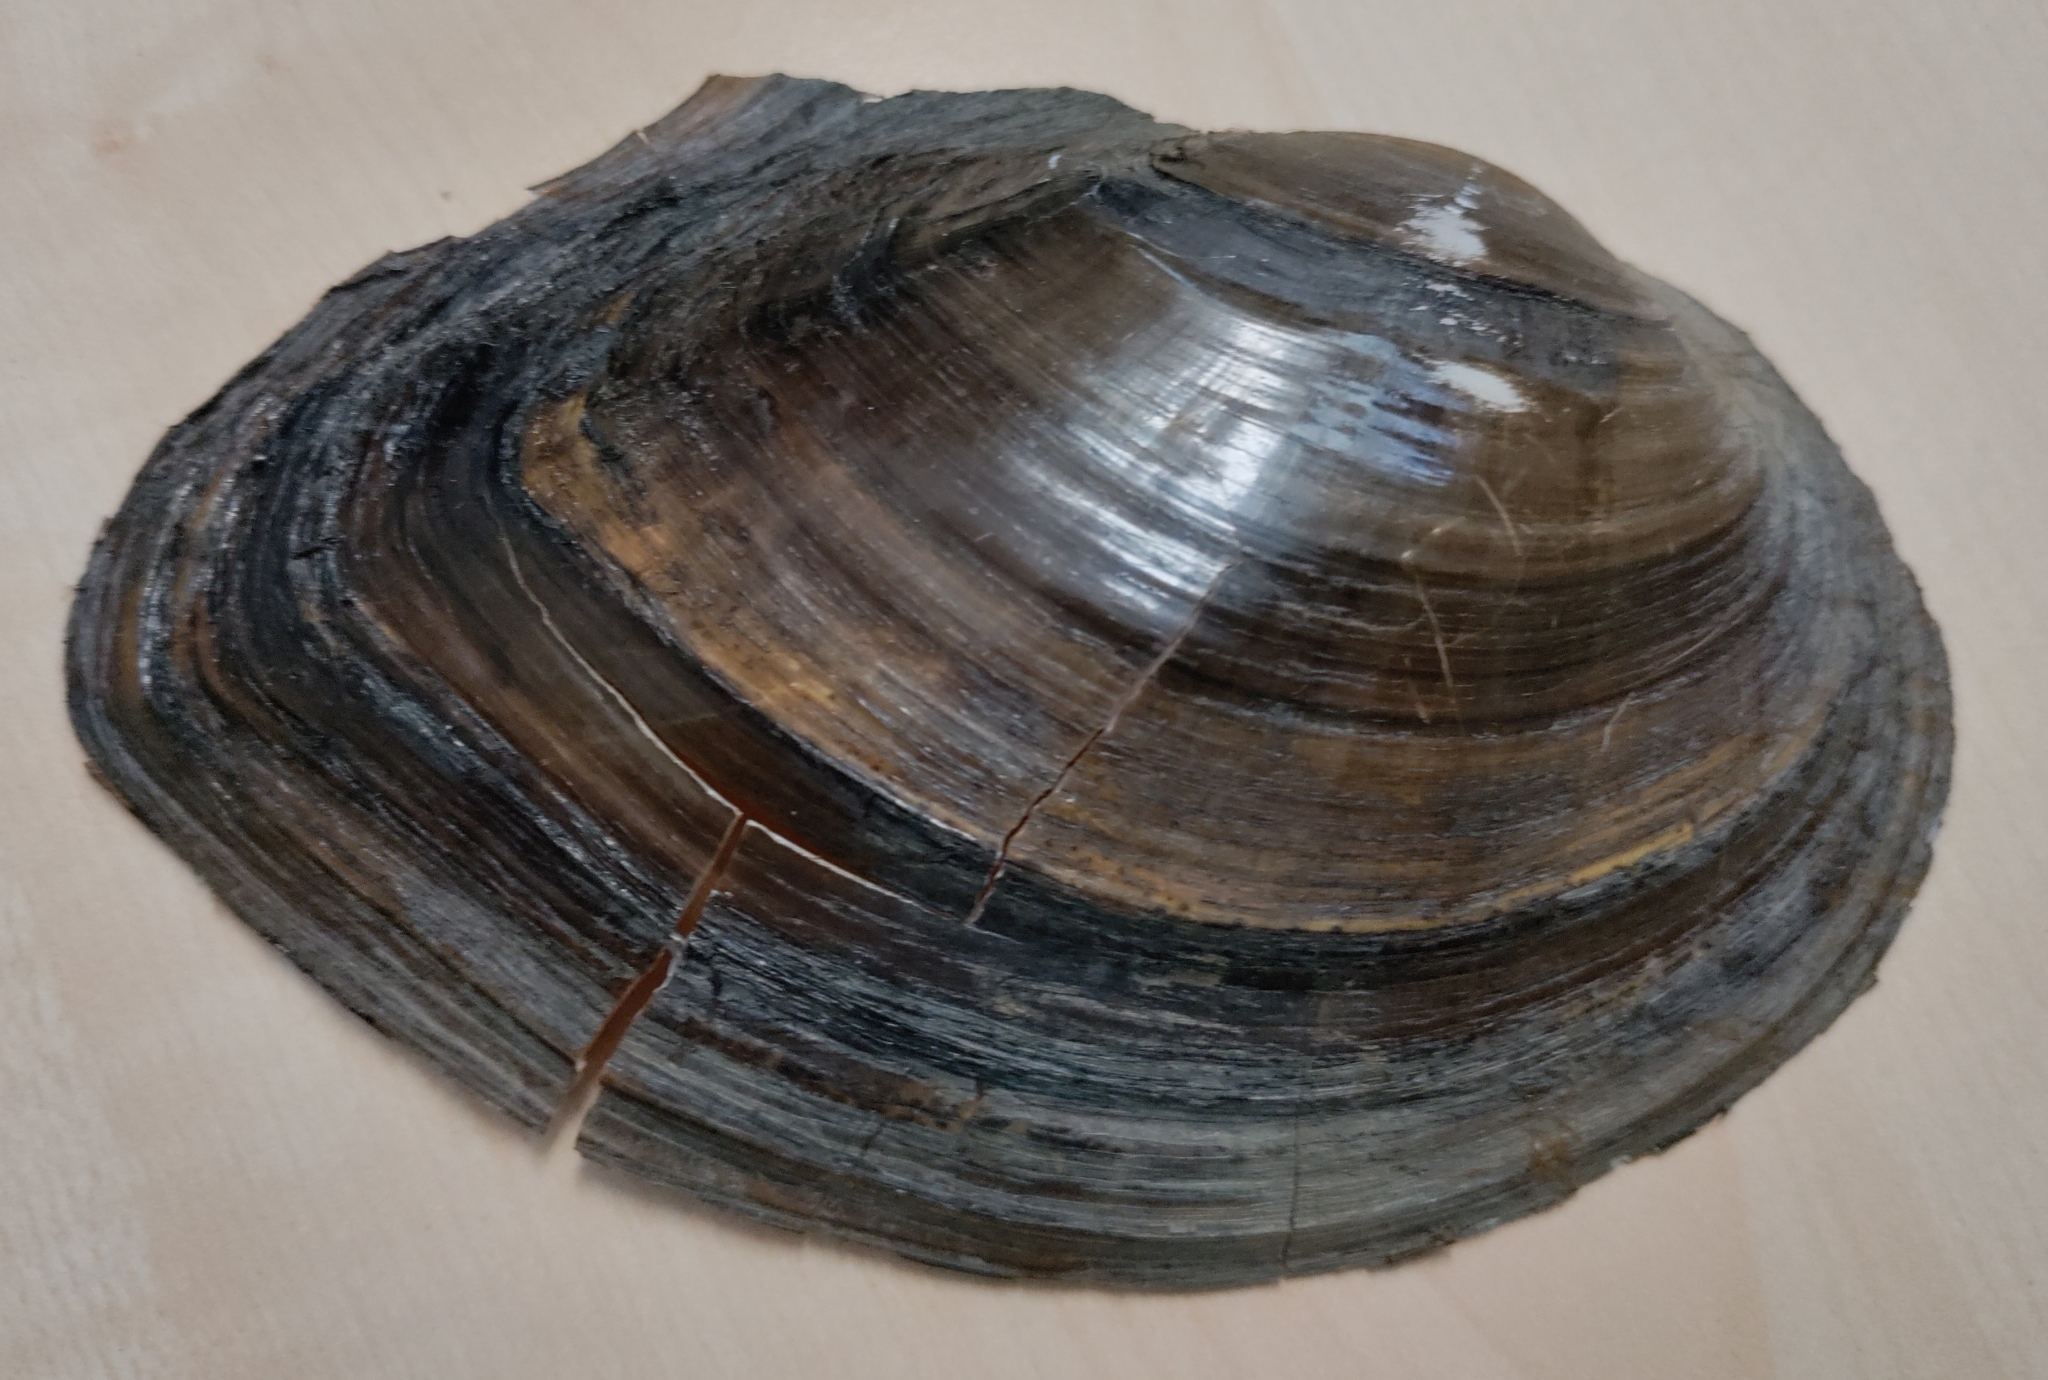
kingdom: Animalia
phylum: Mollusca
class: Bivalvia
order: Unionida
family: Unionidae
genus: Sinanodonta
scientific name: Sinanodonta woodiana
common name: Chinese pond mussel
